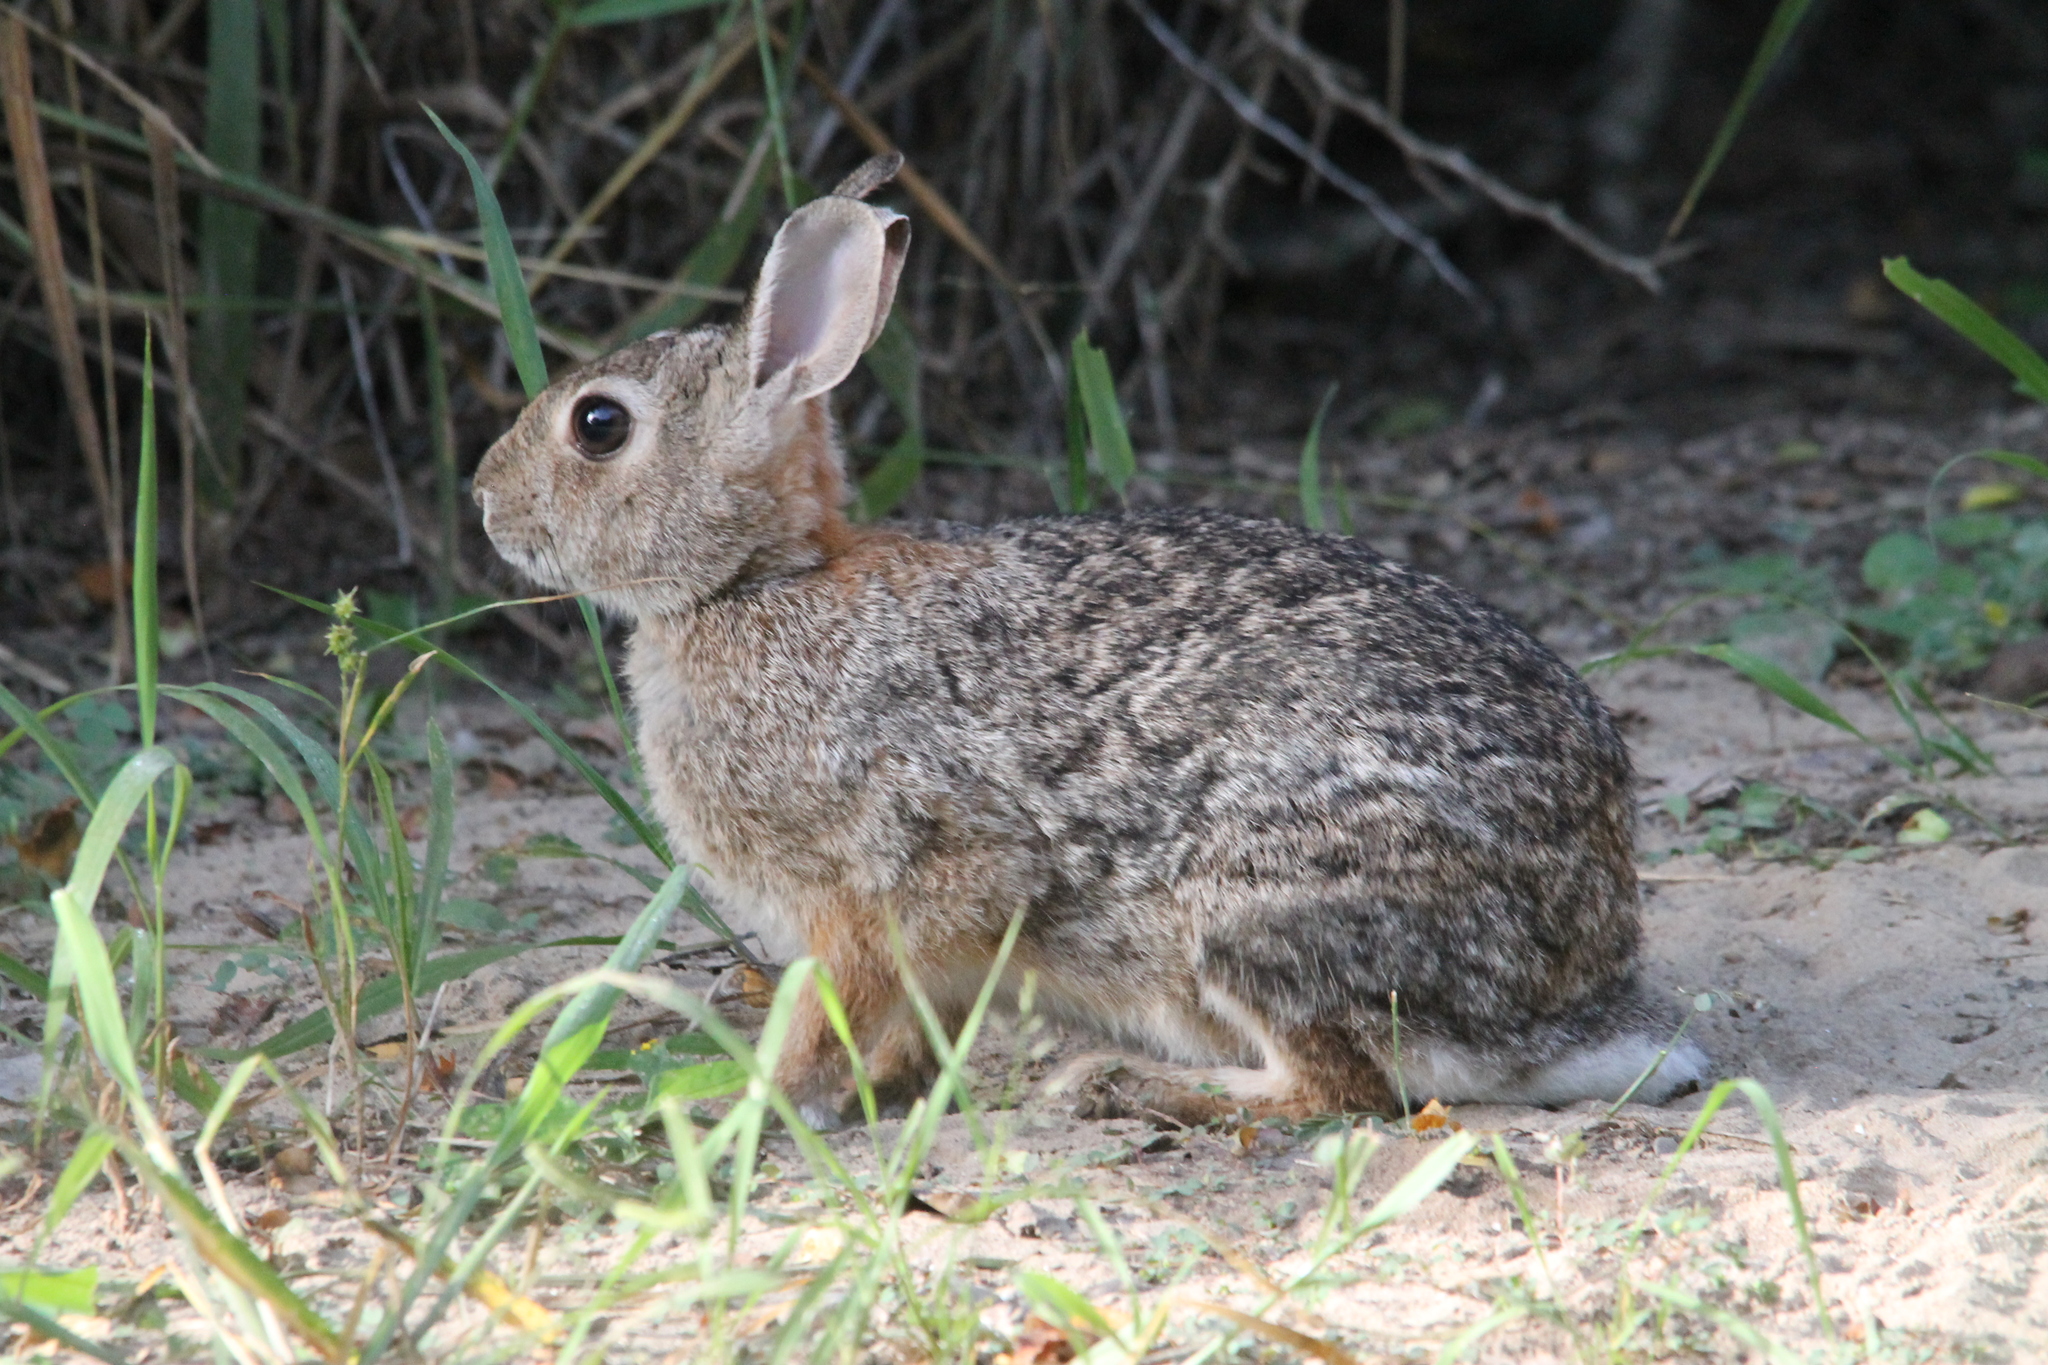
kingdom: Animalia
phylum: Chordata
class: Mammalia
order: Lagomorpha
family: Leporidae
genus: Sylvilagus
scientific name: Sylvilagus floridanus
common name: Eastern cottontail
